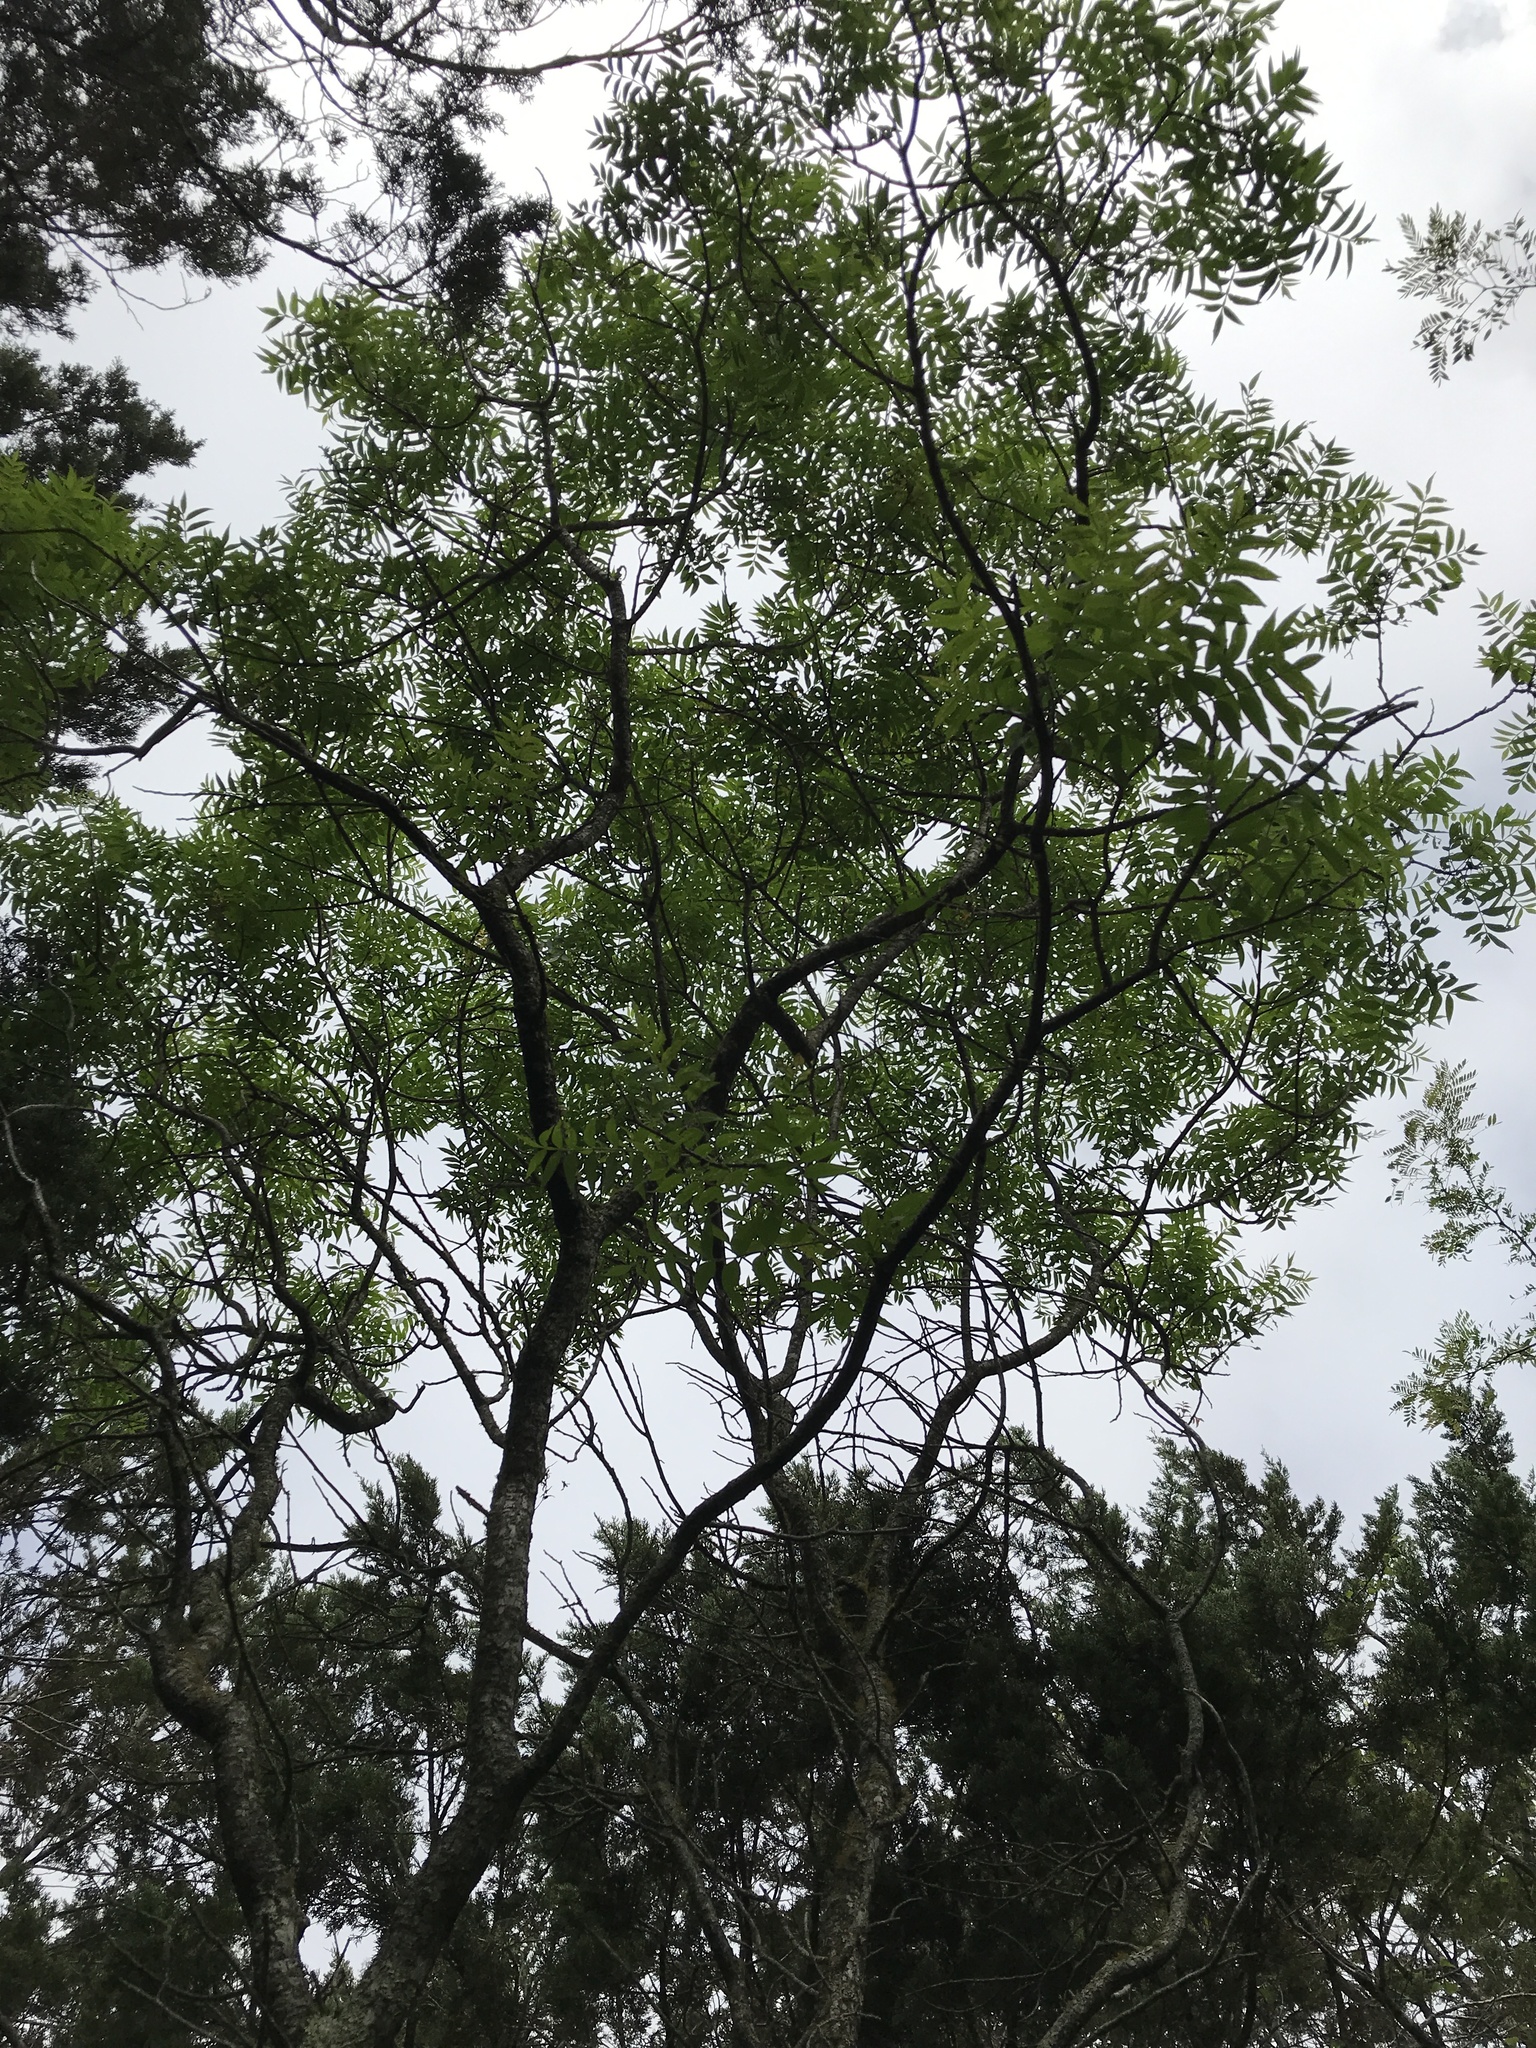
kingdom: Plantae
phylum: Tracheophyta
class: Magnoliopsida
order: Sapindales
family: Anacardiaceae
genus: Rhus
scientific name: Rhus lanceolata
